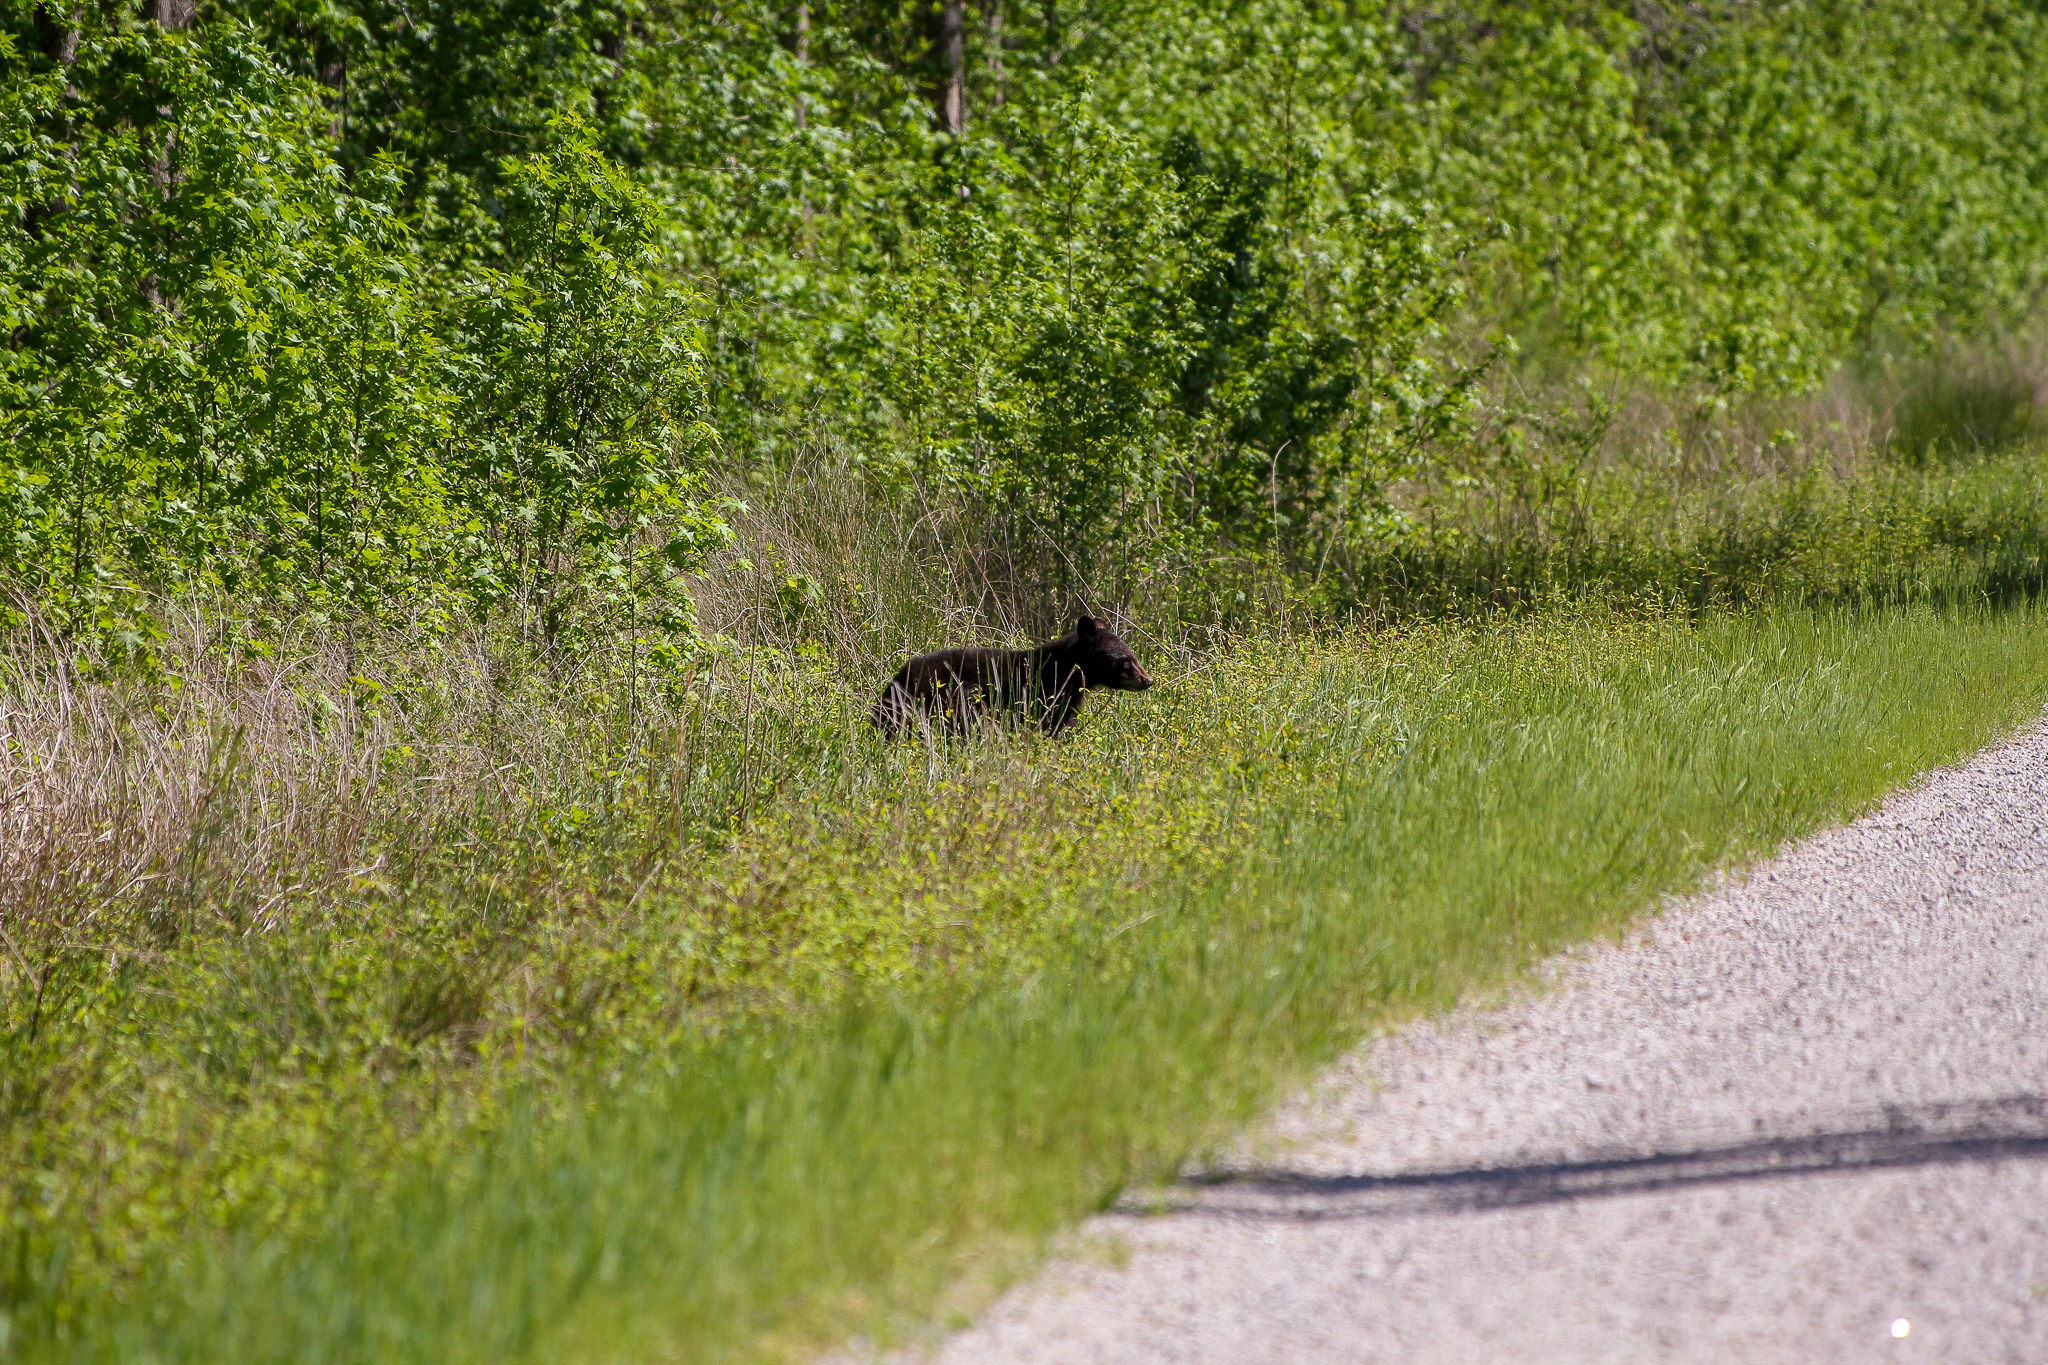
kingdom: Animalia
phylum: Chordata
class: Mammalia
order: Carnivora
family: Ursidae
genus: Ursus
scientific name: Ursus americanus
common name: American black bear
